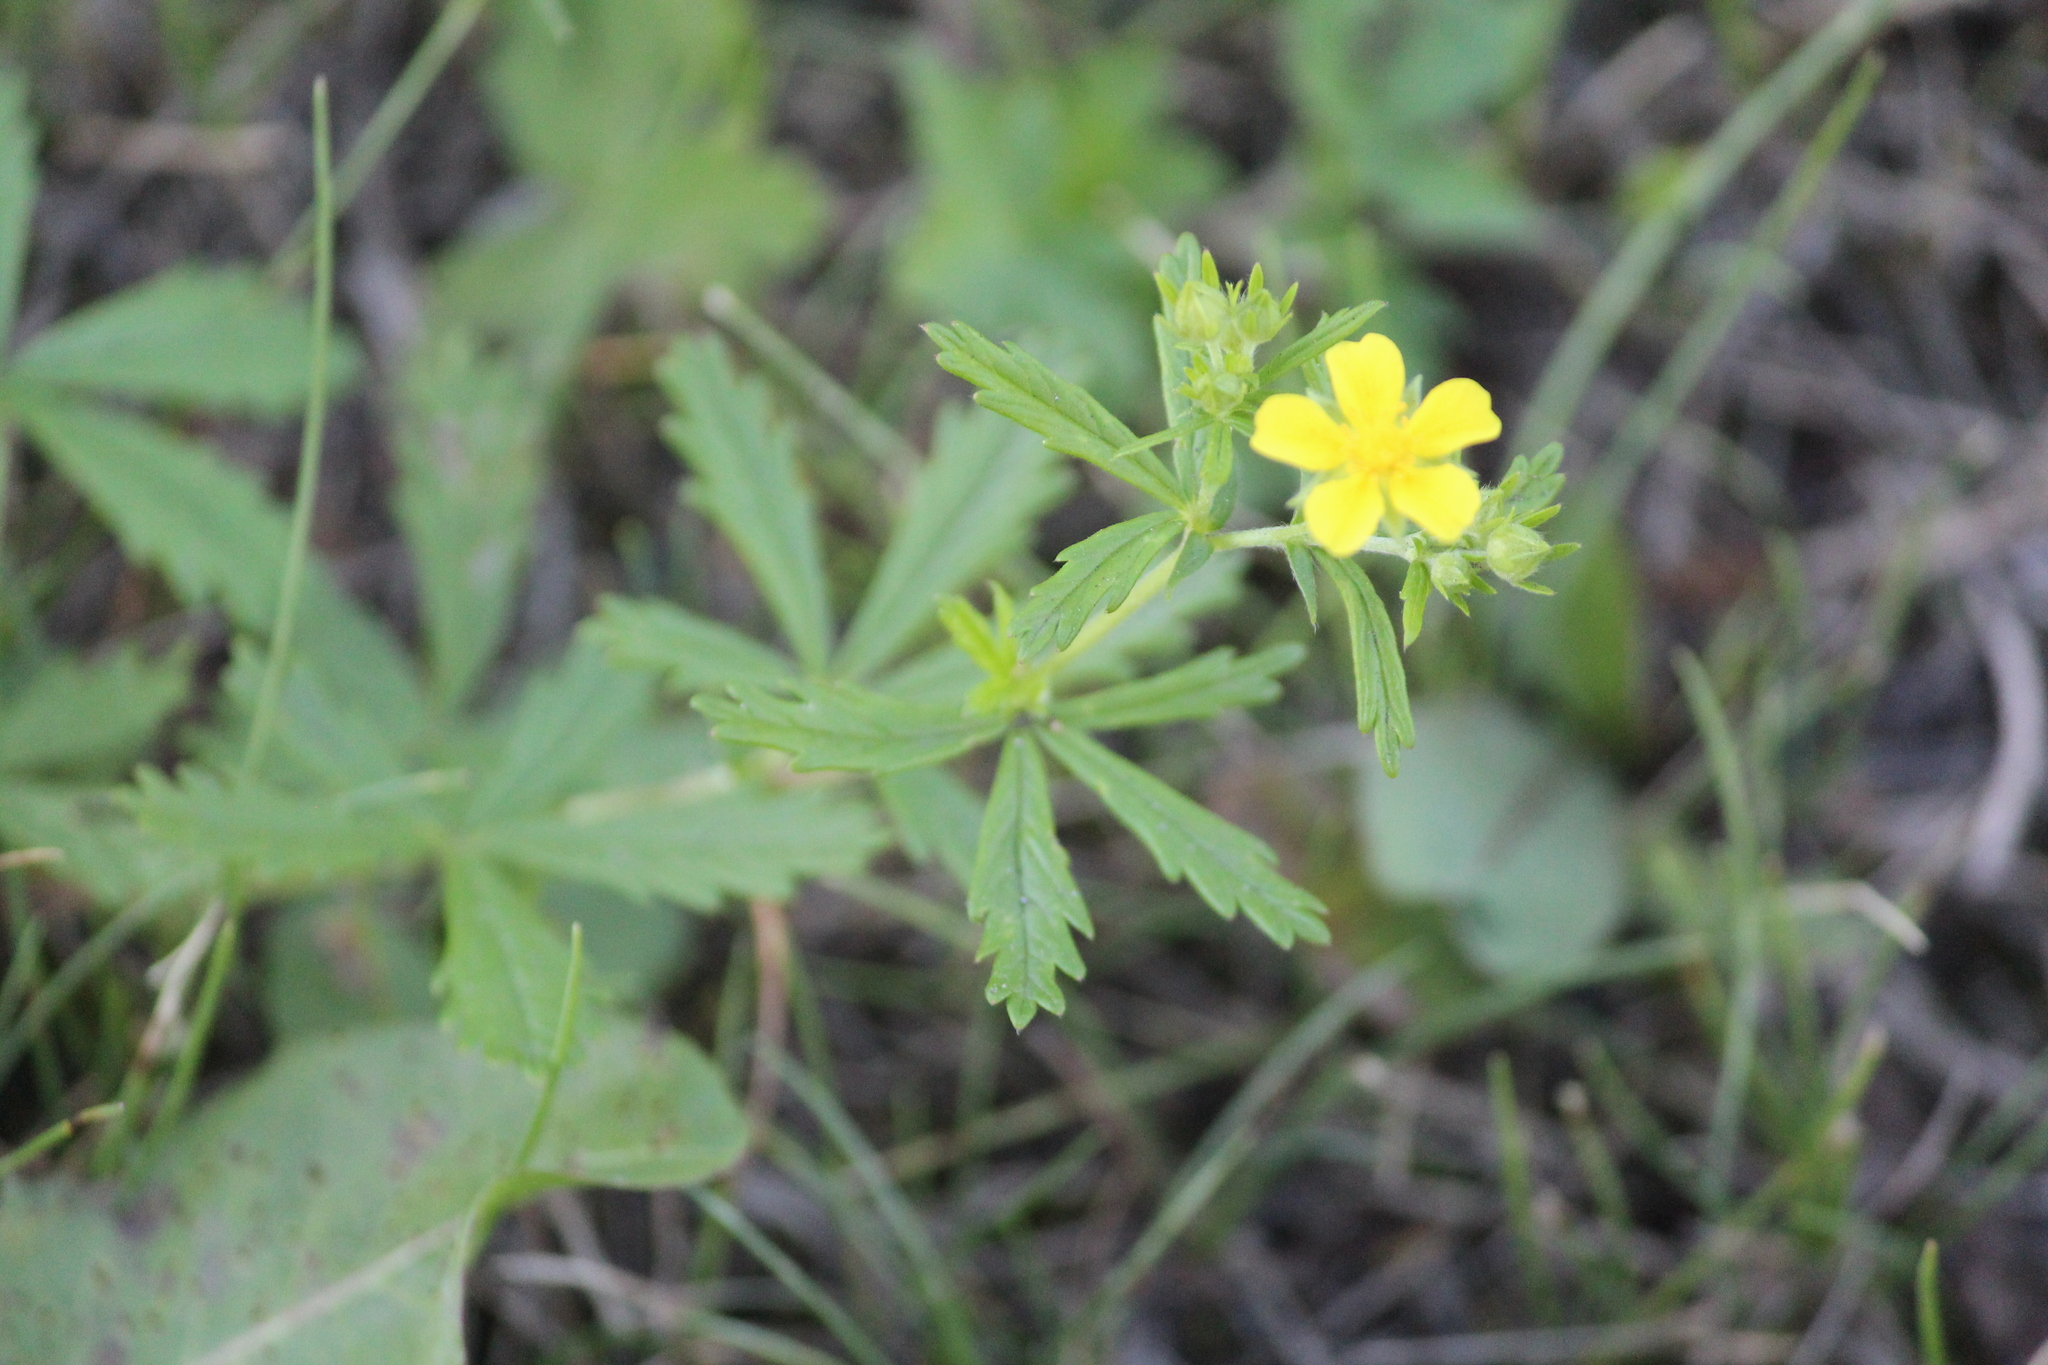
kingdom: Plantae
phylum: Tracheophyta
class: Magnoliopsida
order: Rosales
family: Rosaceae
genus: Potentilla
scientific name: Potentilla argentea
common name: Hoary cinquefoil
